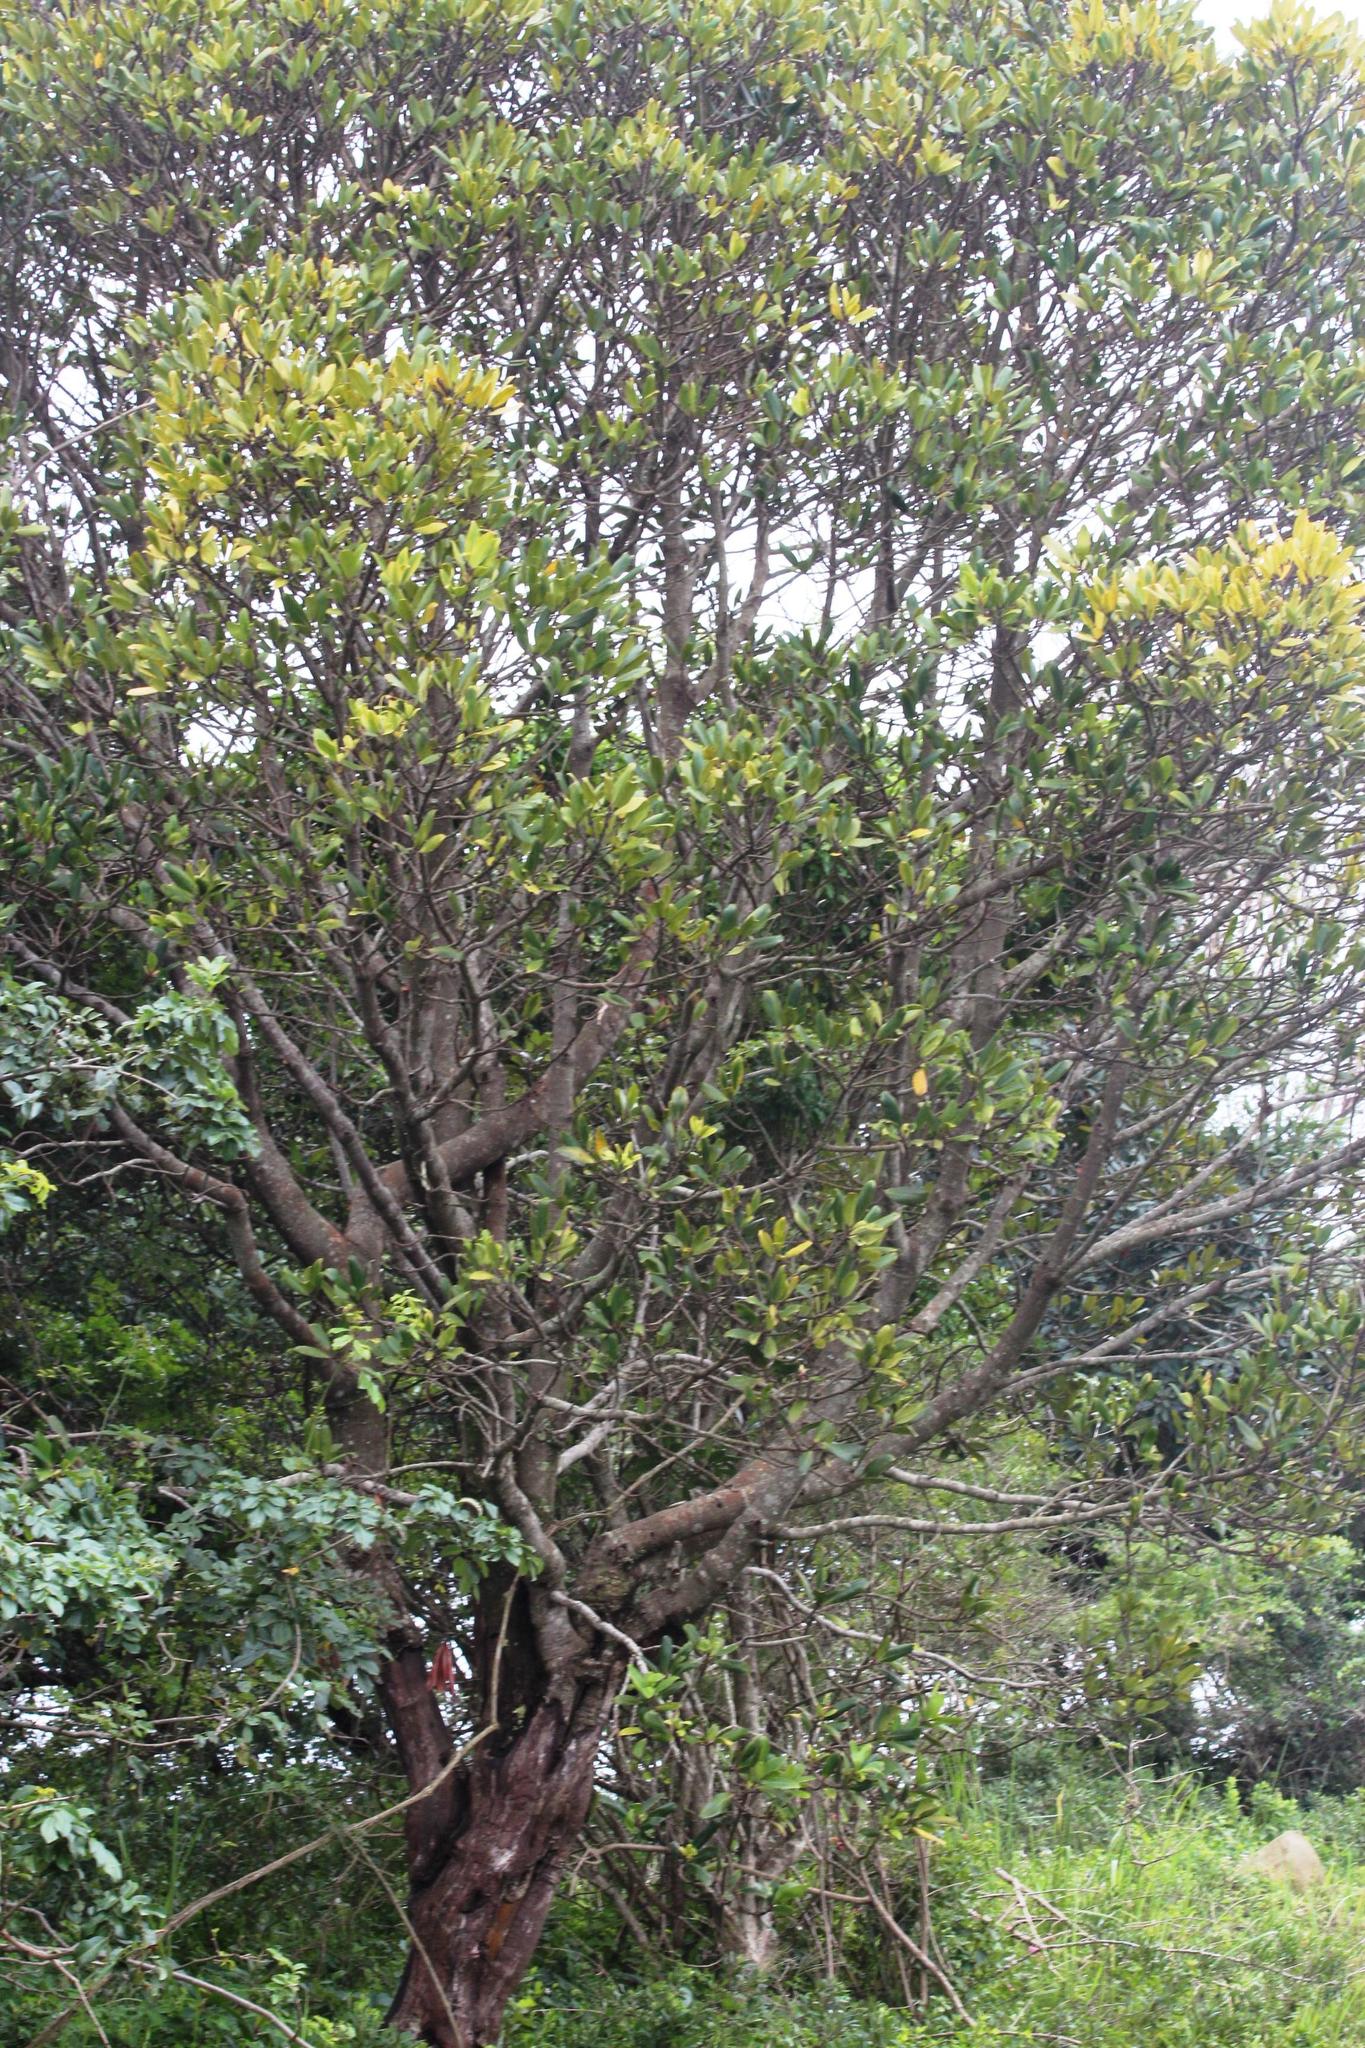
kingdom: Plantae
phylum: Tracheophyta
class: Magnoliopsida
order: Ericales
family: Primulaceae
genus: Myrsine
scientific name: Myrsine melanophloeos
